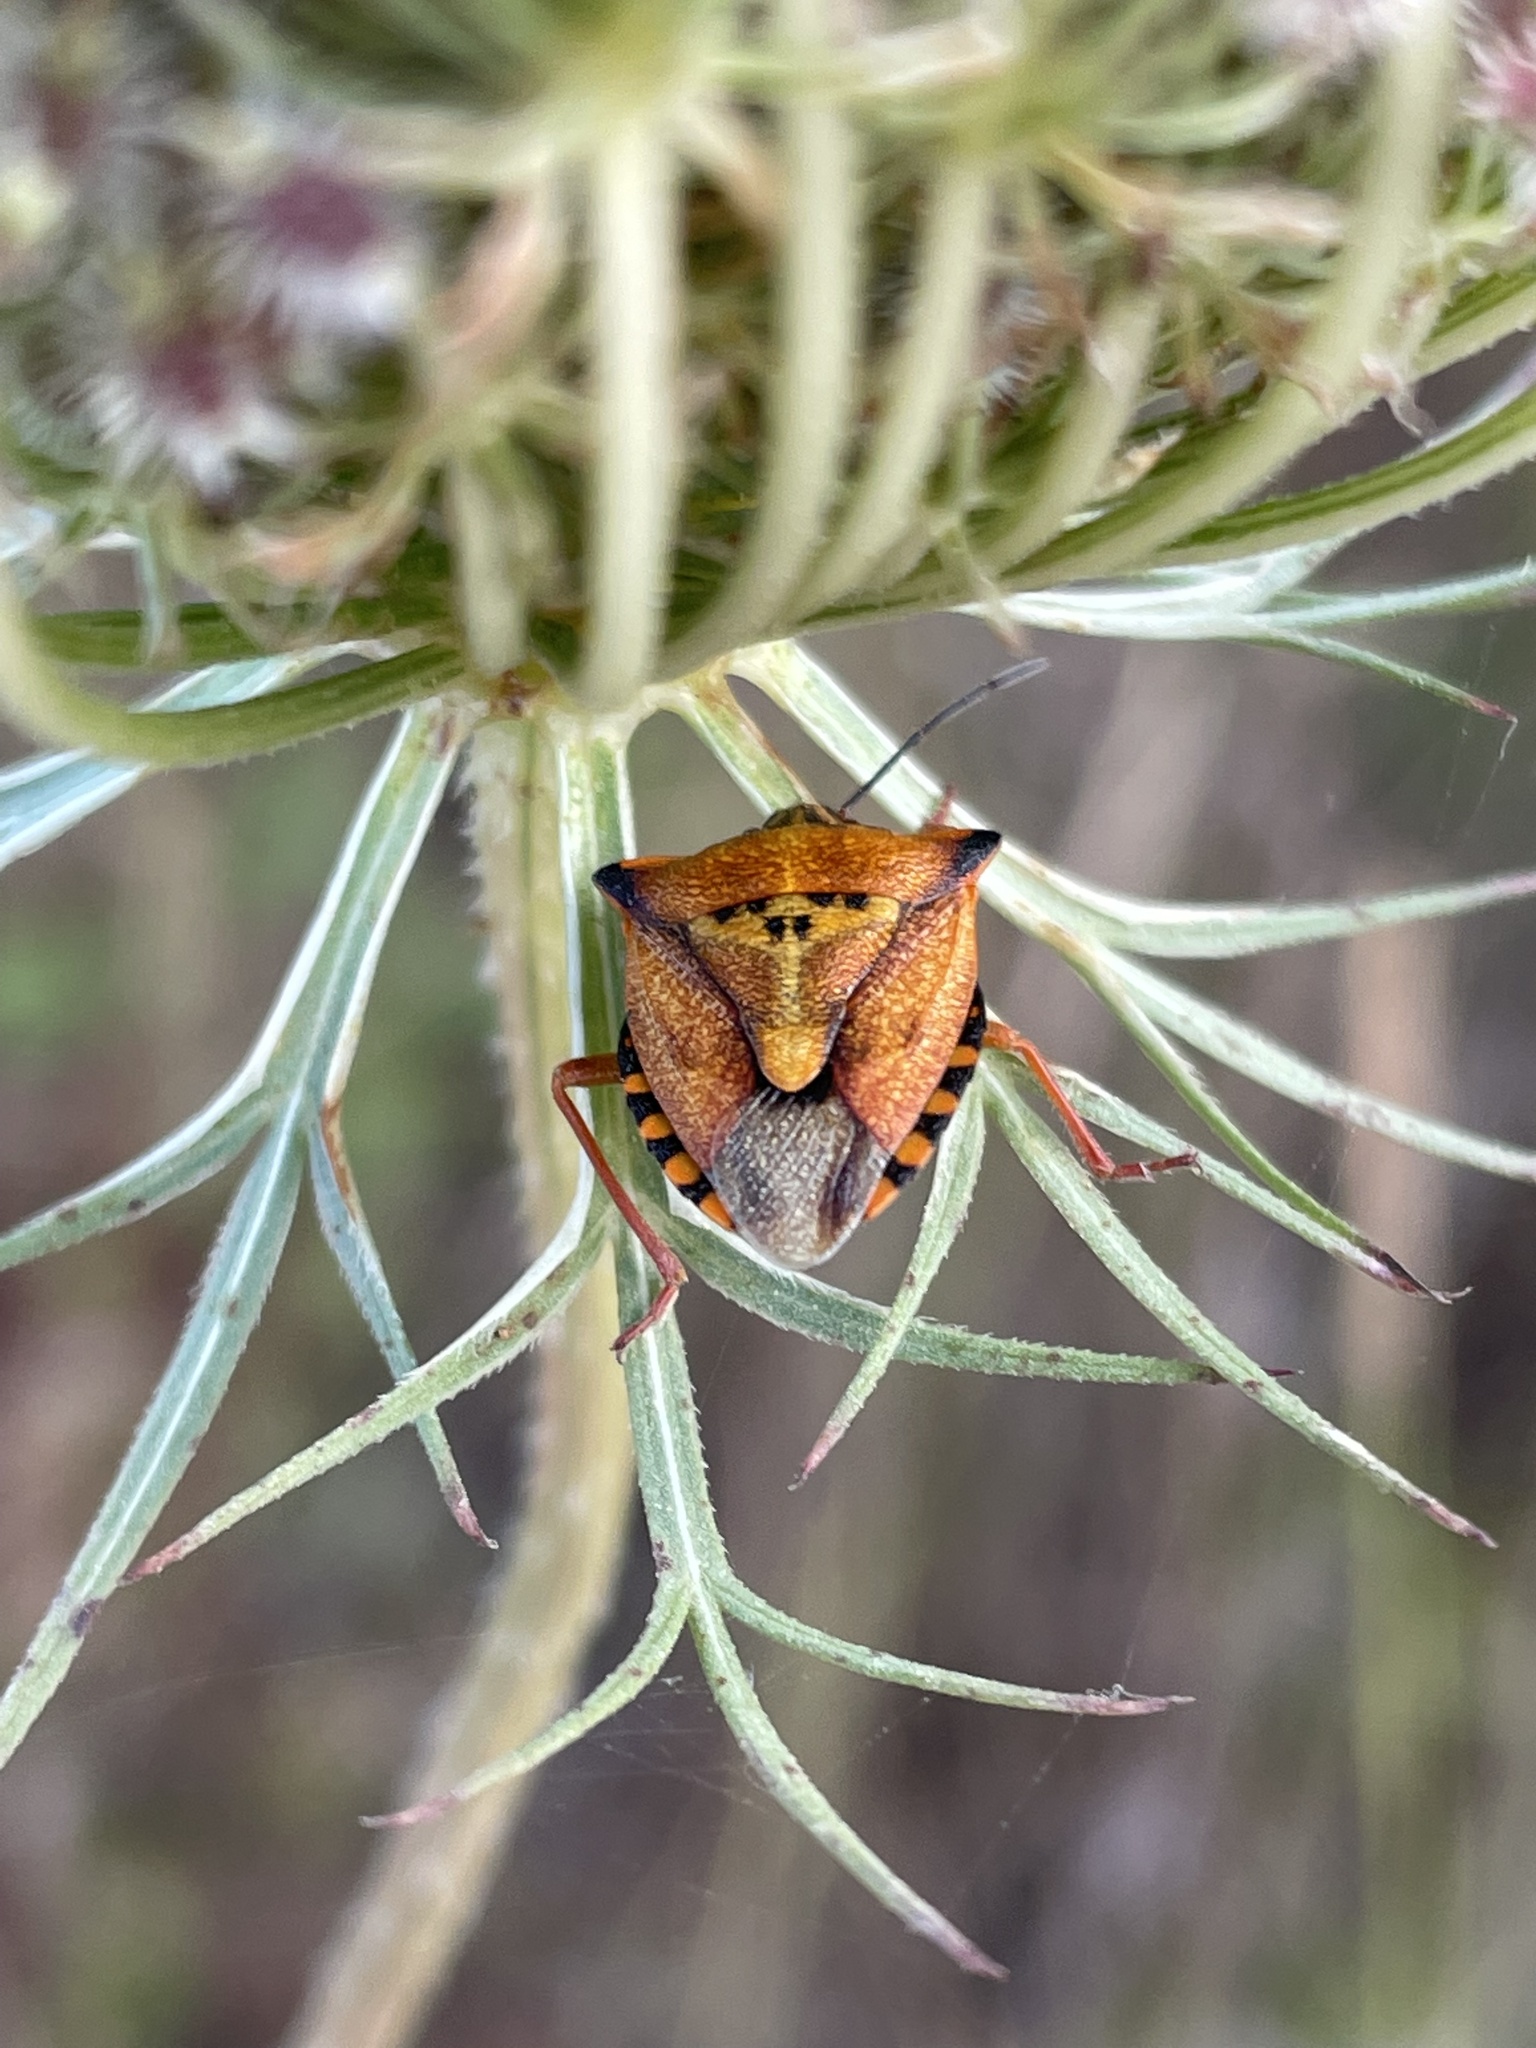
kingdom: Animalia
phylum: Arthropoda
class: Insecta
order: Hemiptera
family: Pentatomidae
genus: Carpocoris
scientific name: Carpocoris mediterraneus
